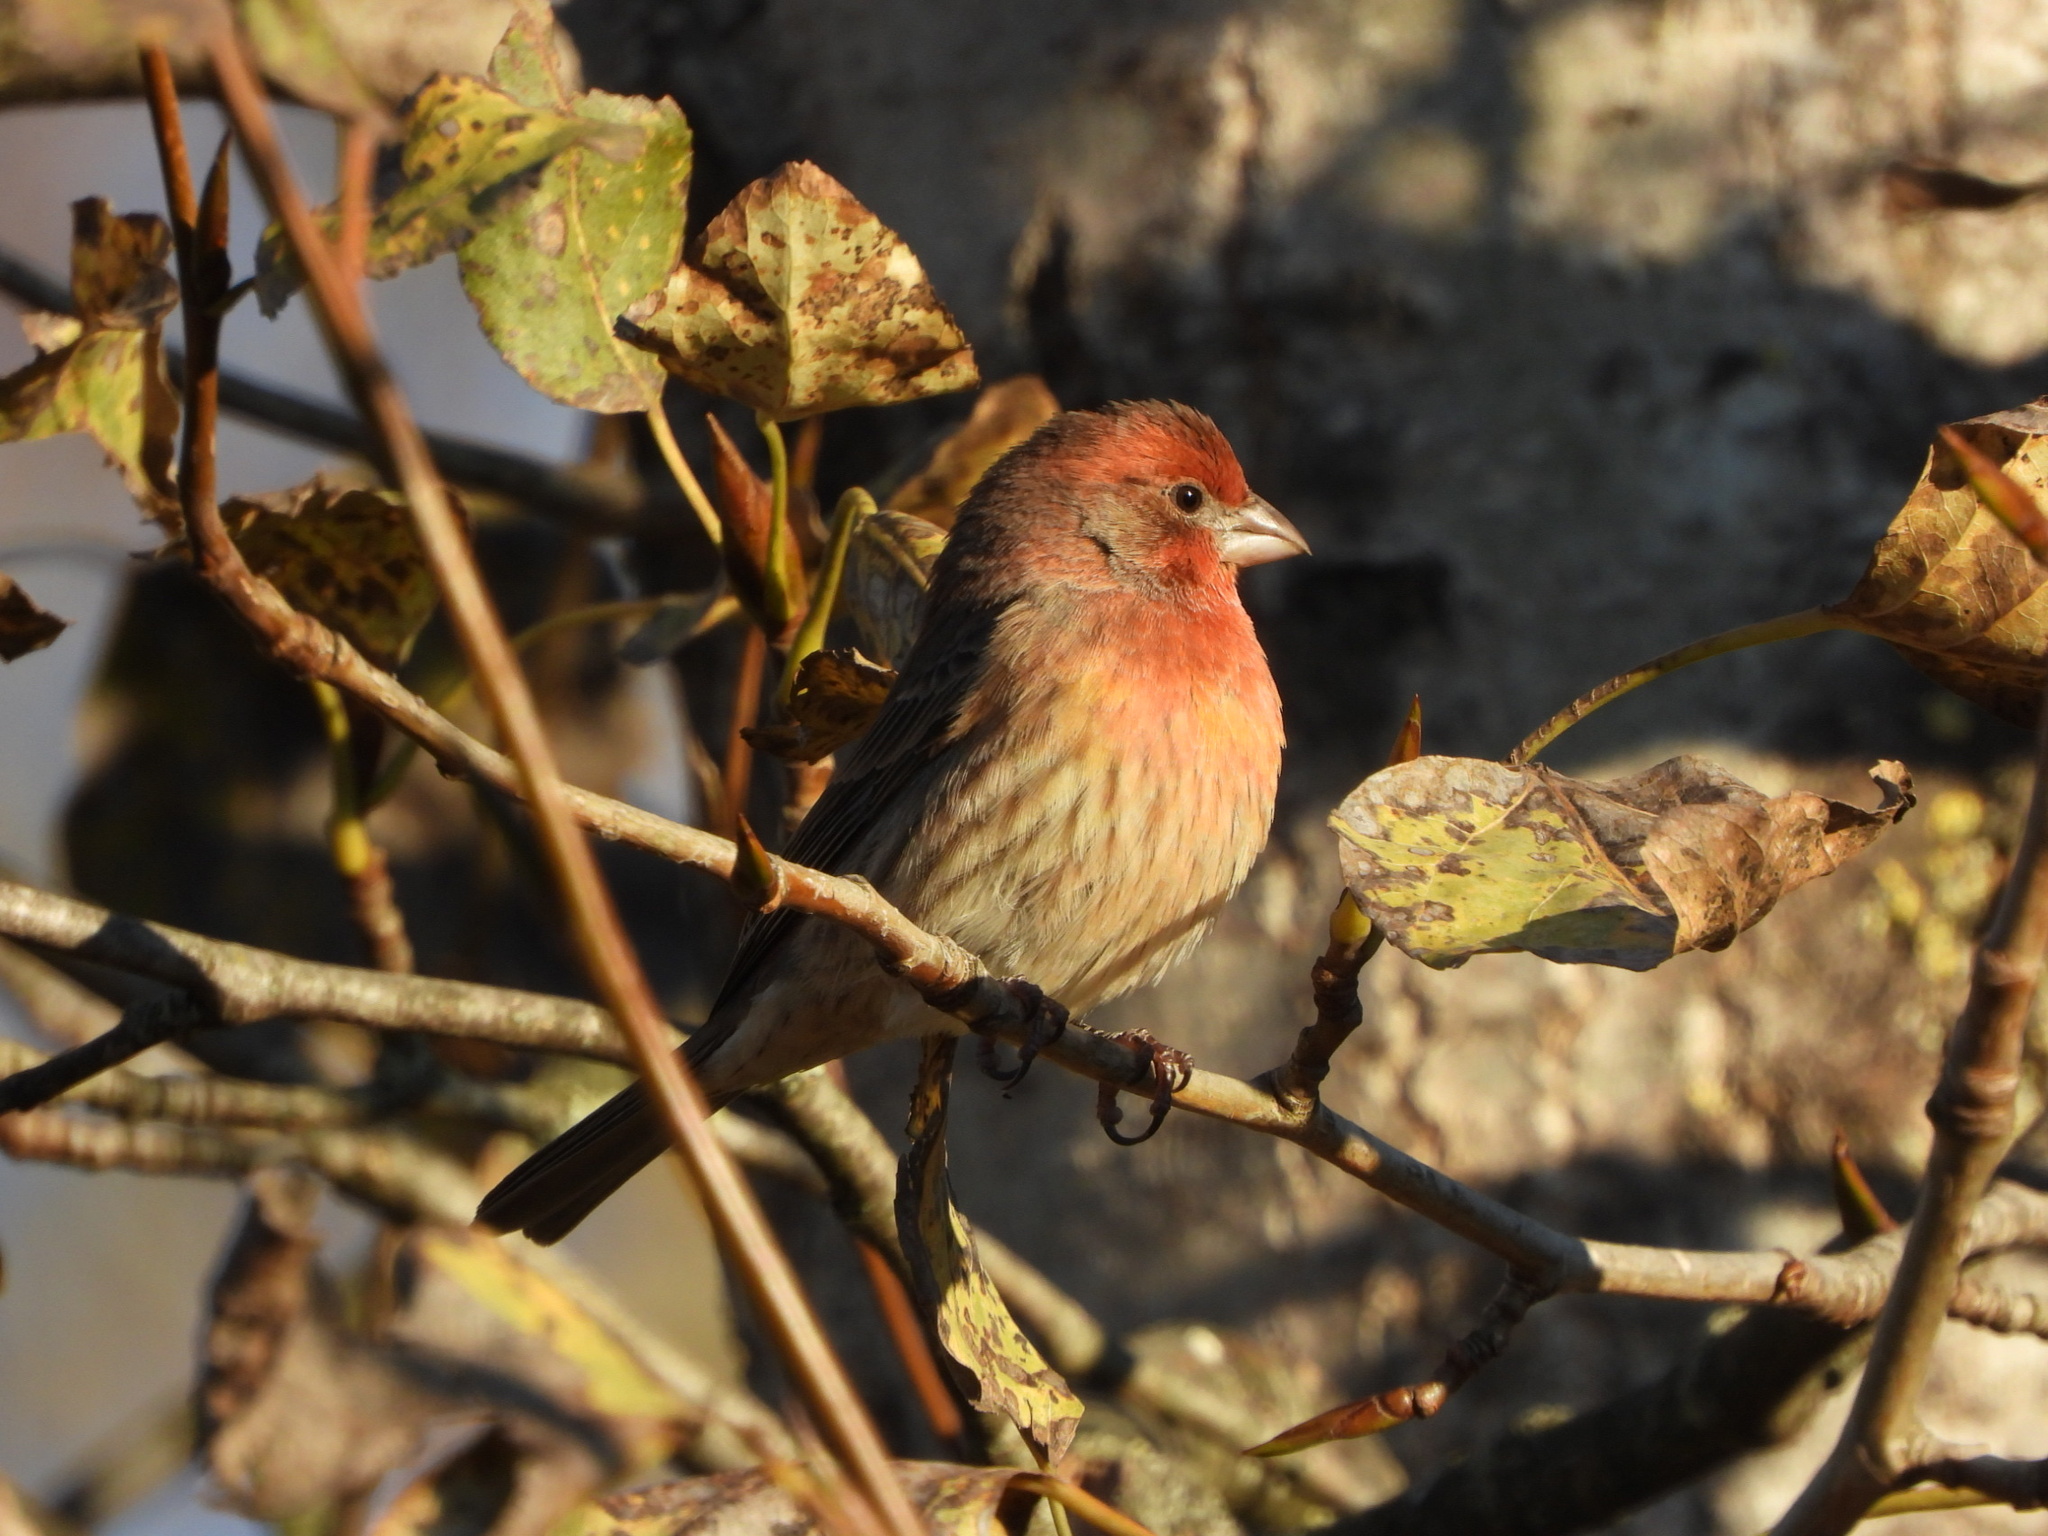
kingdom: Animalia
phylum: Chordata
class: Aves
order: Passeriformes
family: Fringillidae
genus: Haemorhous
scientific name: Haemorhous mexicanus
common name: House finch
